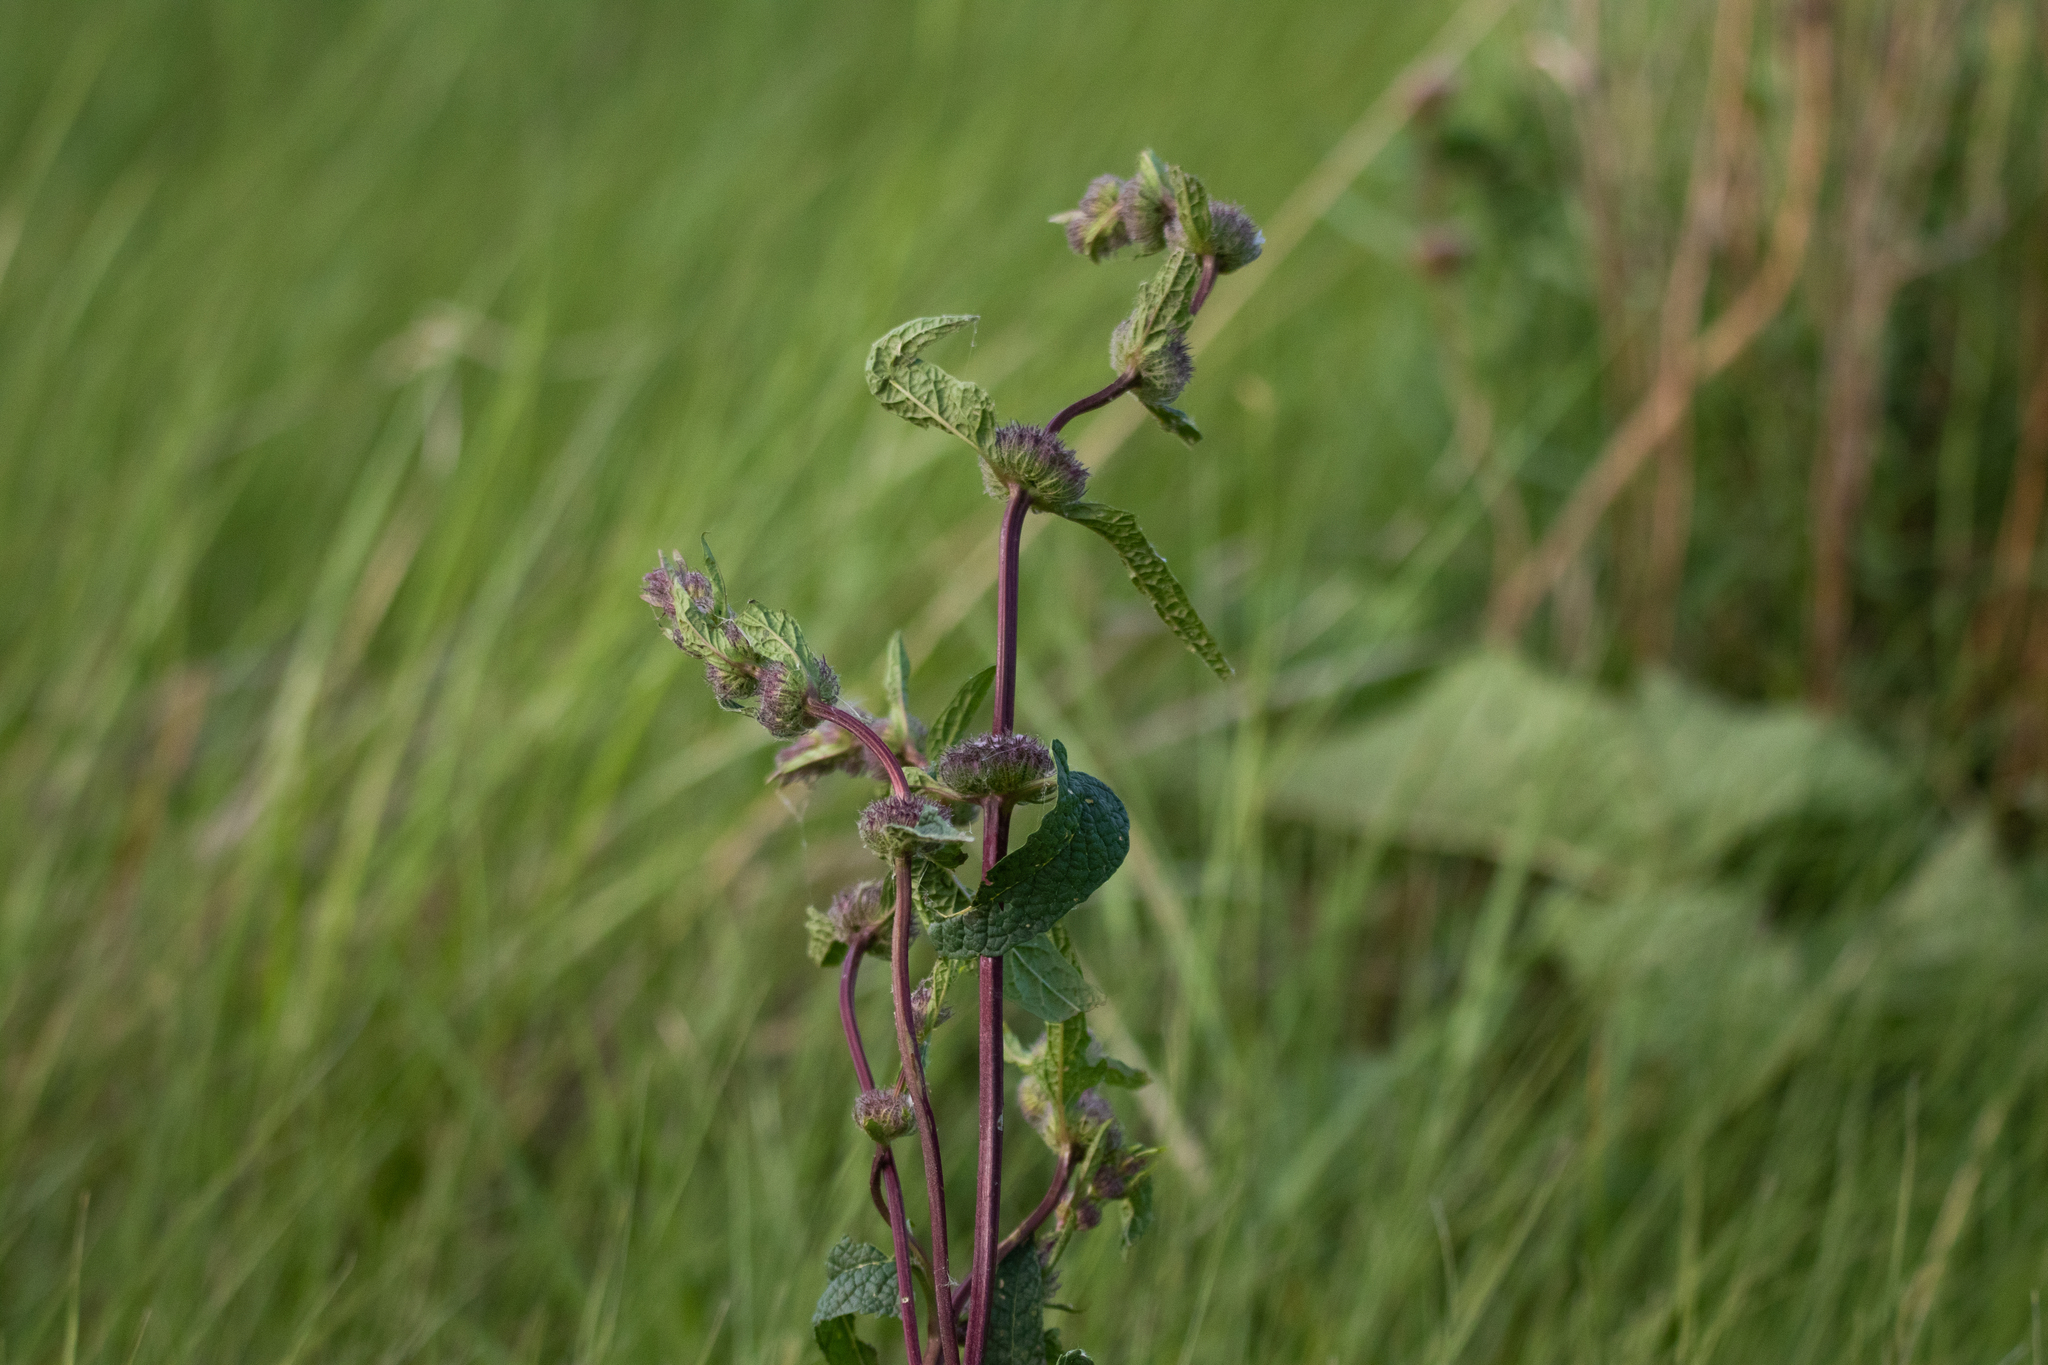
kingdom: Plantae
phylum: Tracheophyta
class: Magnoliopsida
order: Lamiales
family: Lamiaceae
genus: Phlomoides
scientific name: Phlomoides tuberosa
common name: Tuberous jerusalem sage
